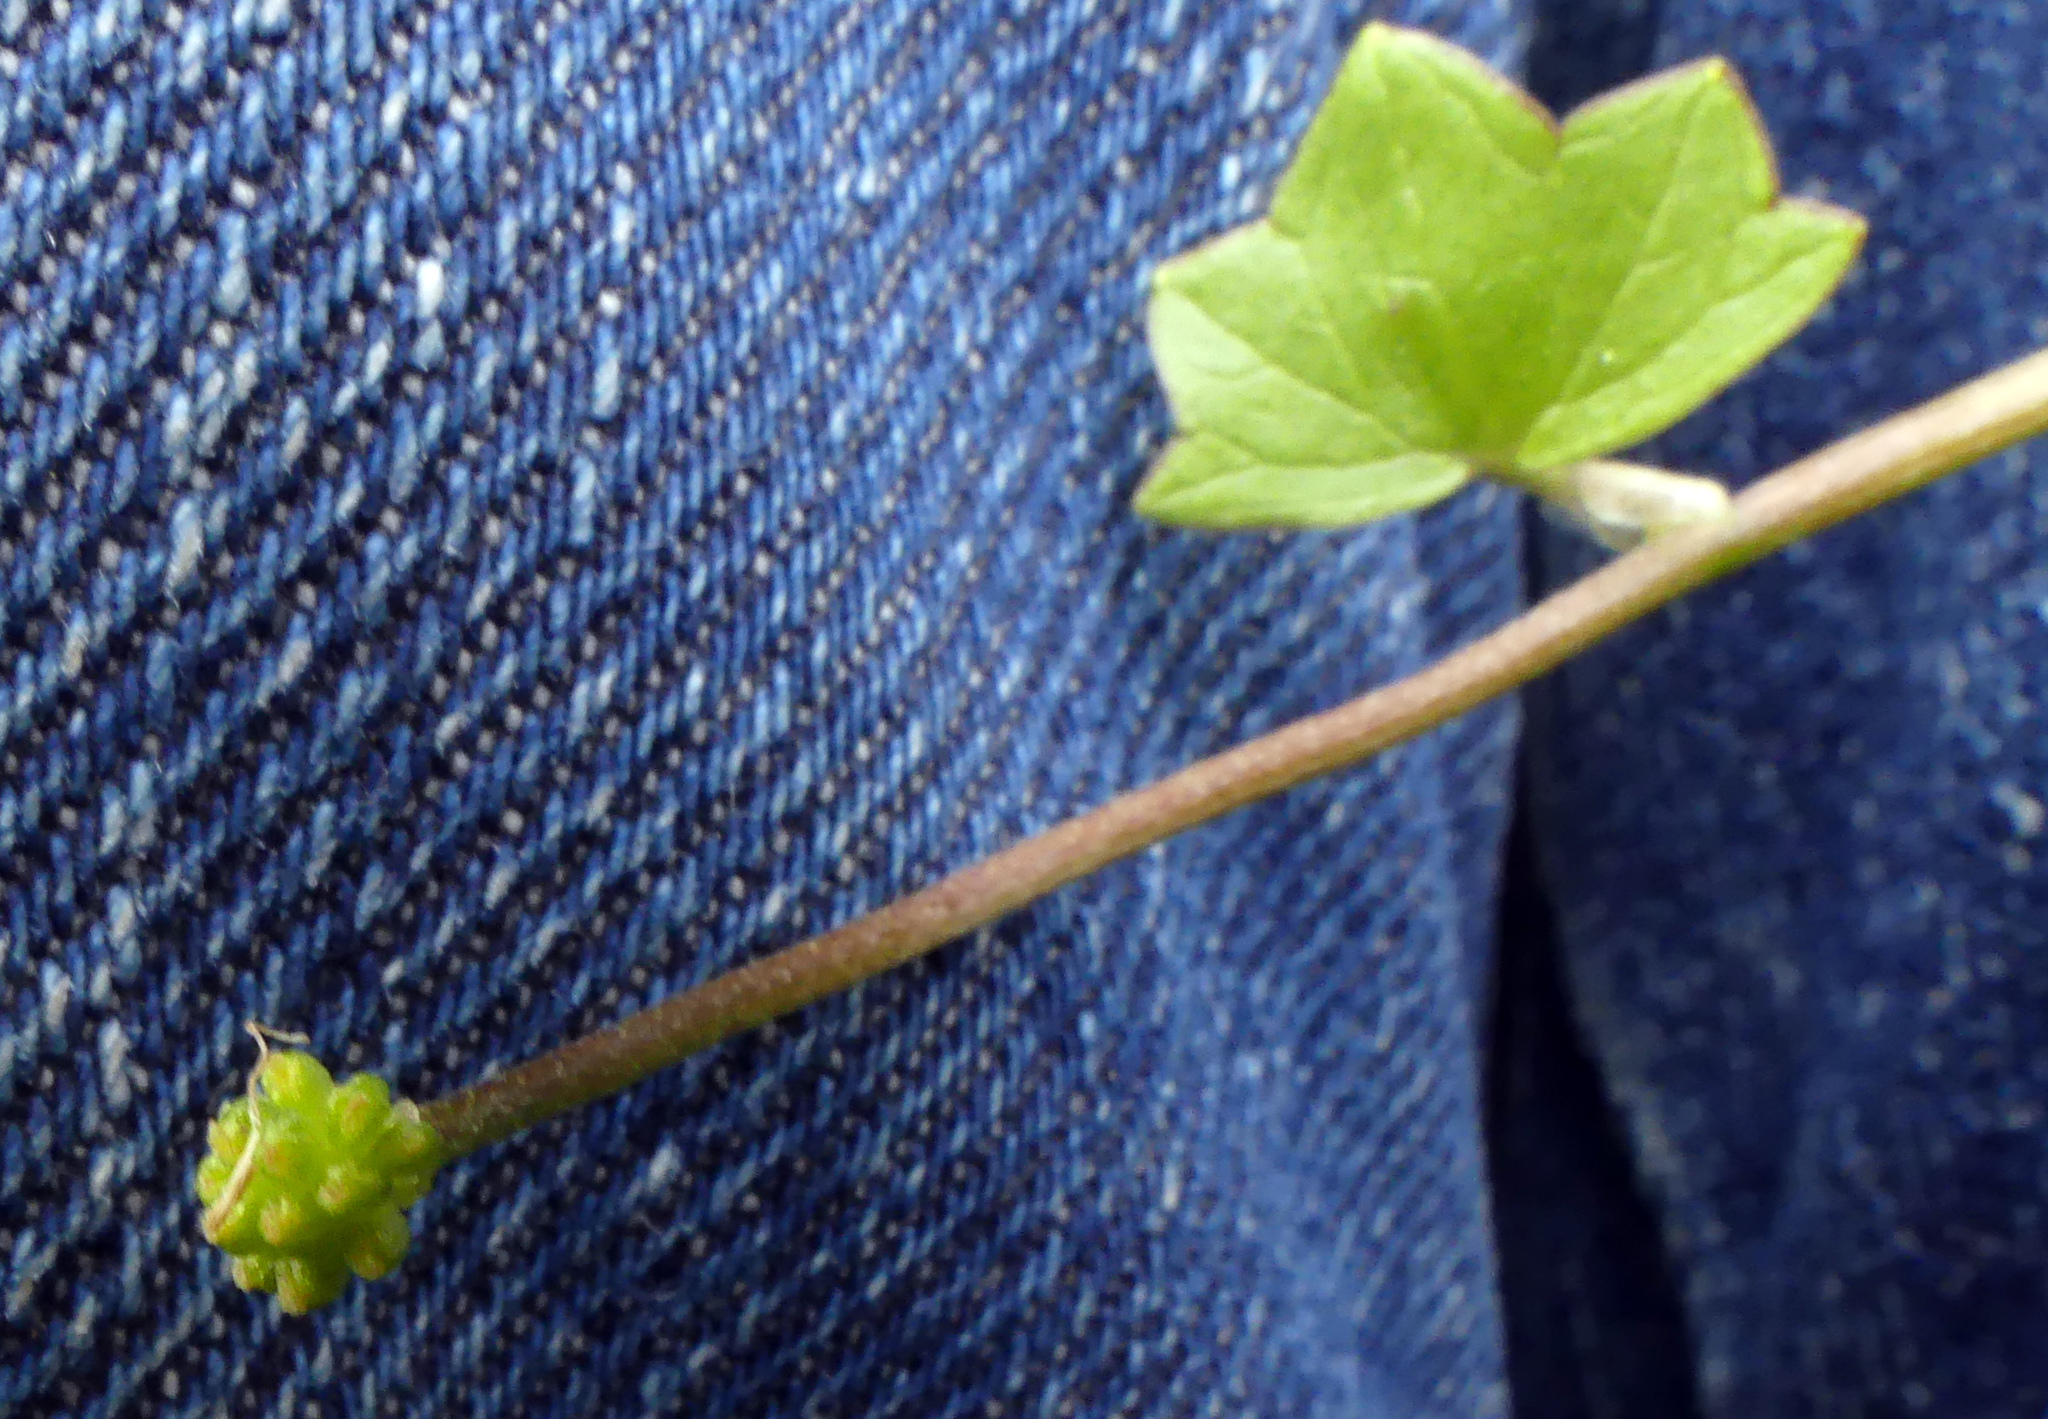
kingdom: Plantae
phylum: Tracheophyta
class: Magnoliopsida
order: Ranunculales
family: Ranunculaceae
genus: Ficaria
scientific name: Ficaria verna
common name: Lesser celandine
